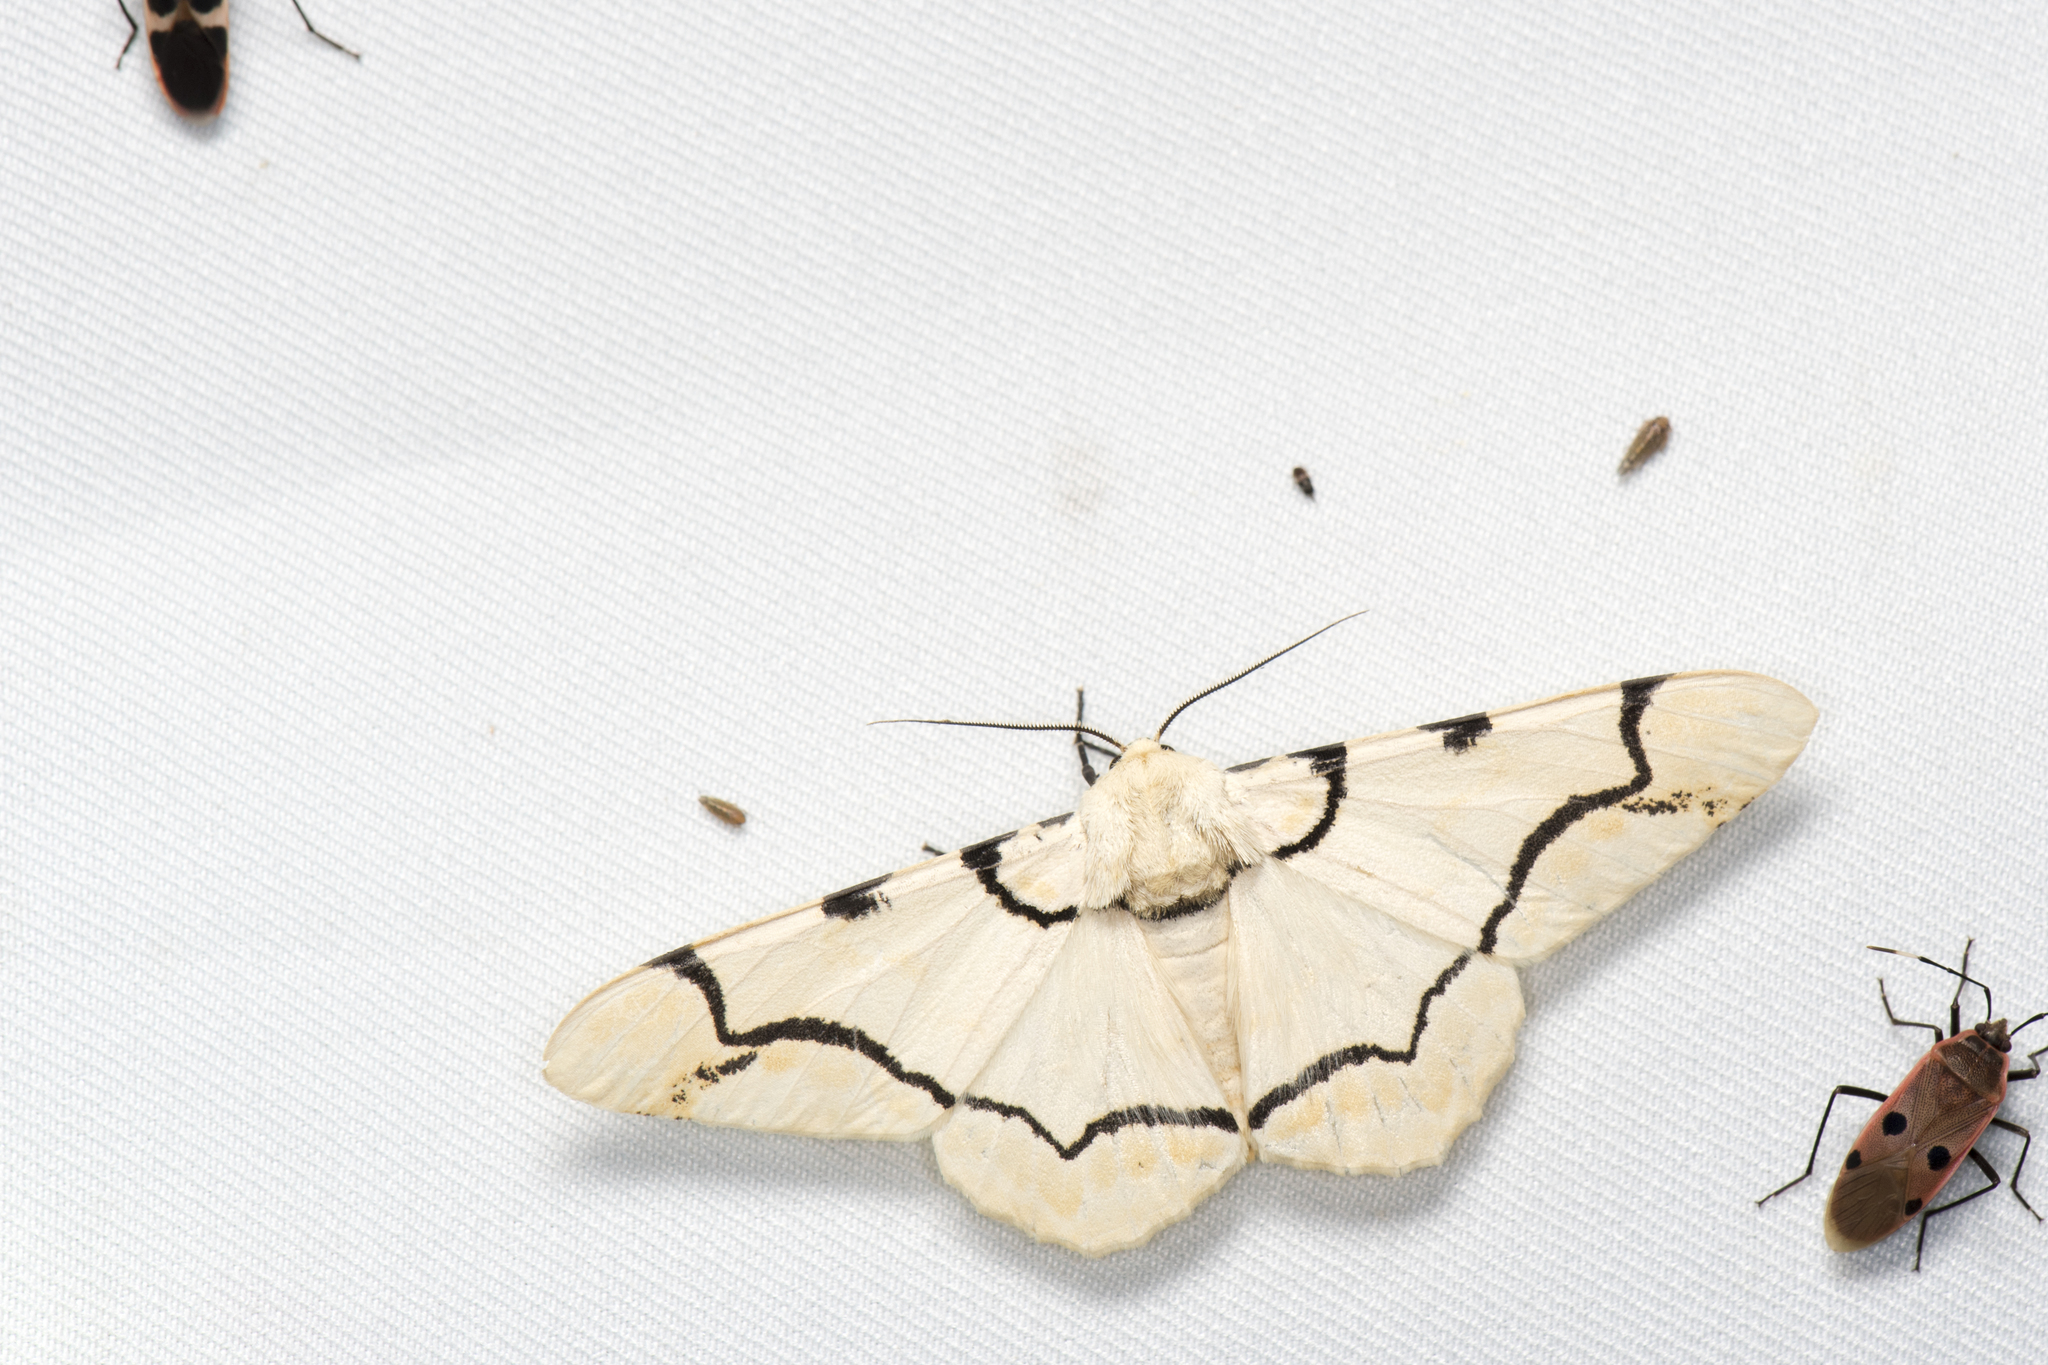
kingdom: Animalia
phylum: Arthropoda
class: Insecta
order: Lepidoptera
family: Geometridae
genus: Biston
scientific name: Biston perclara
